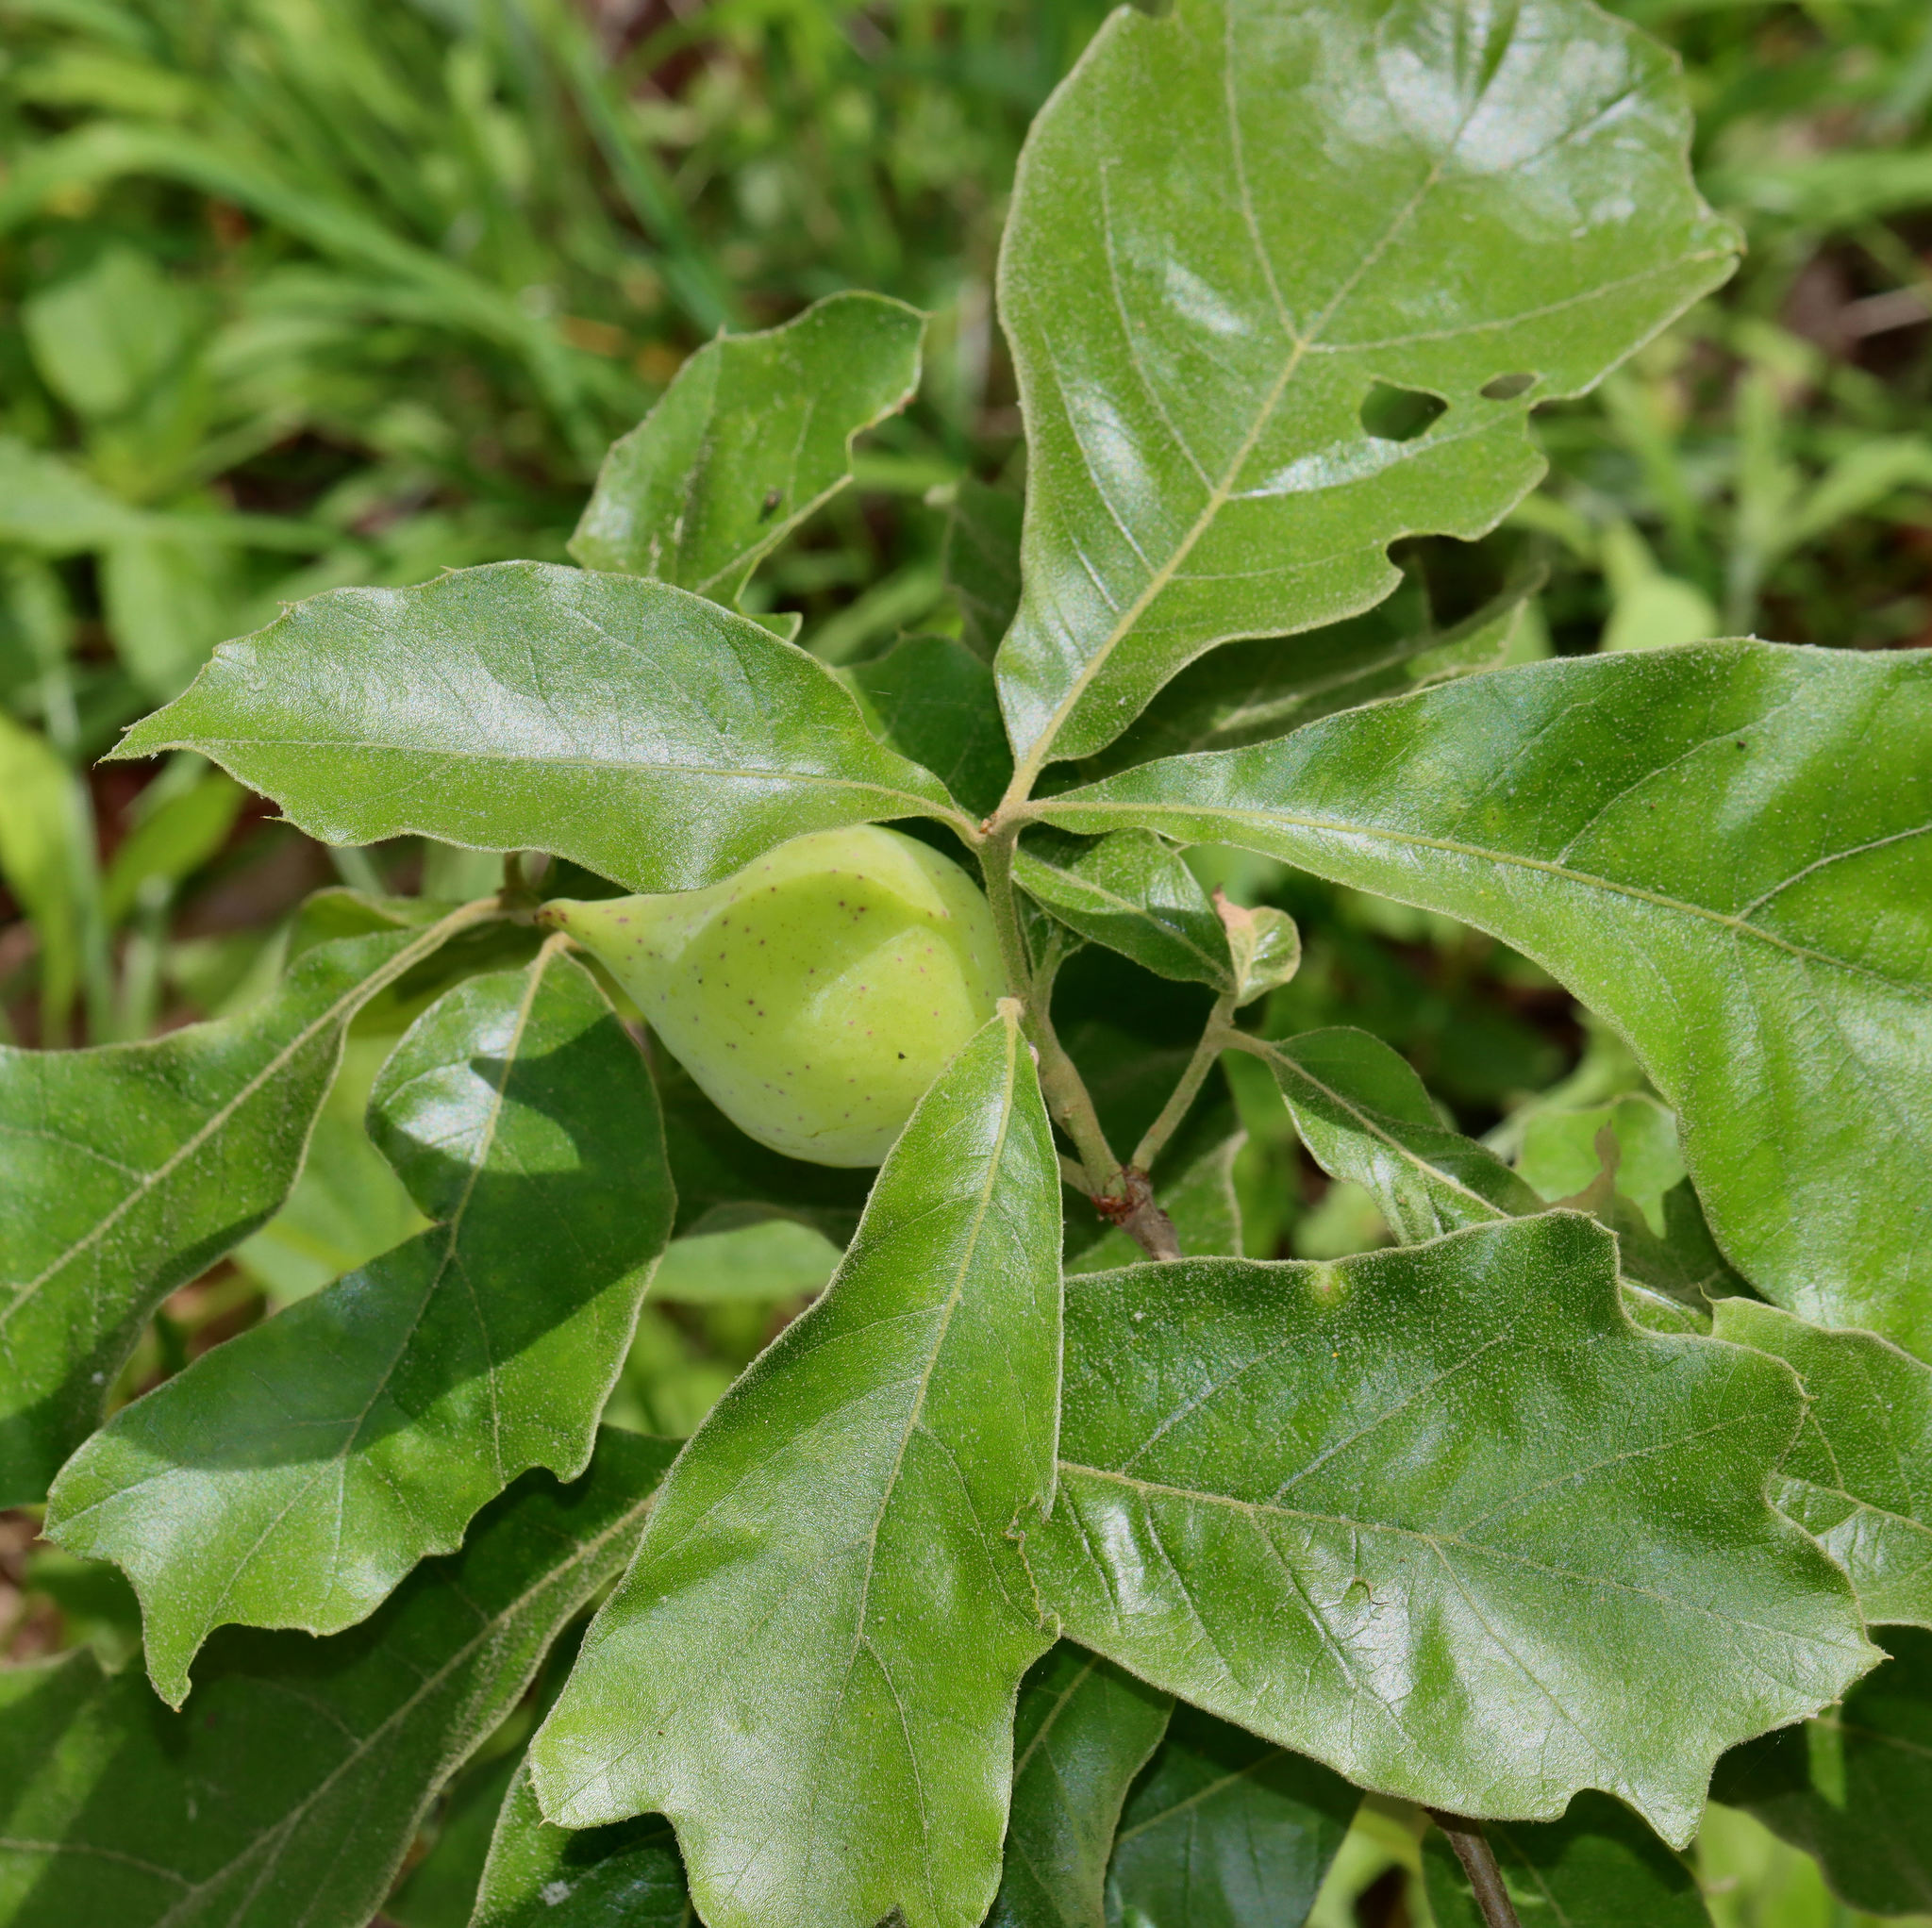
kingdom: Animalia
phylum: Arthropoda
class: Insecta
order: Hymenoptera
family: Cynipidae
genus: Amphibolips
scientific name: Amphibolips
